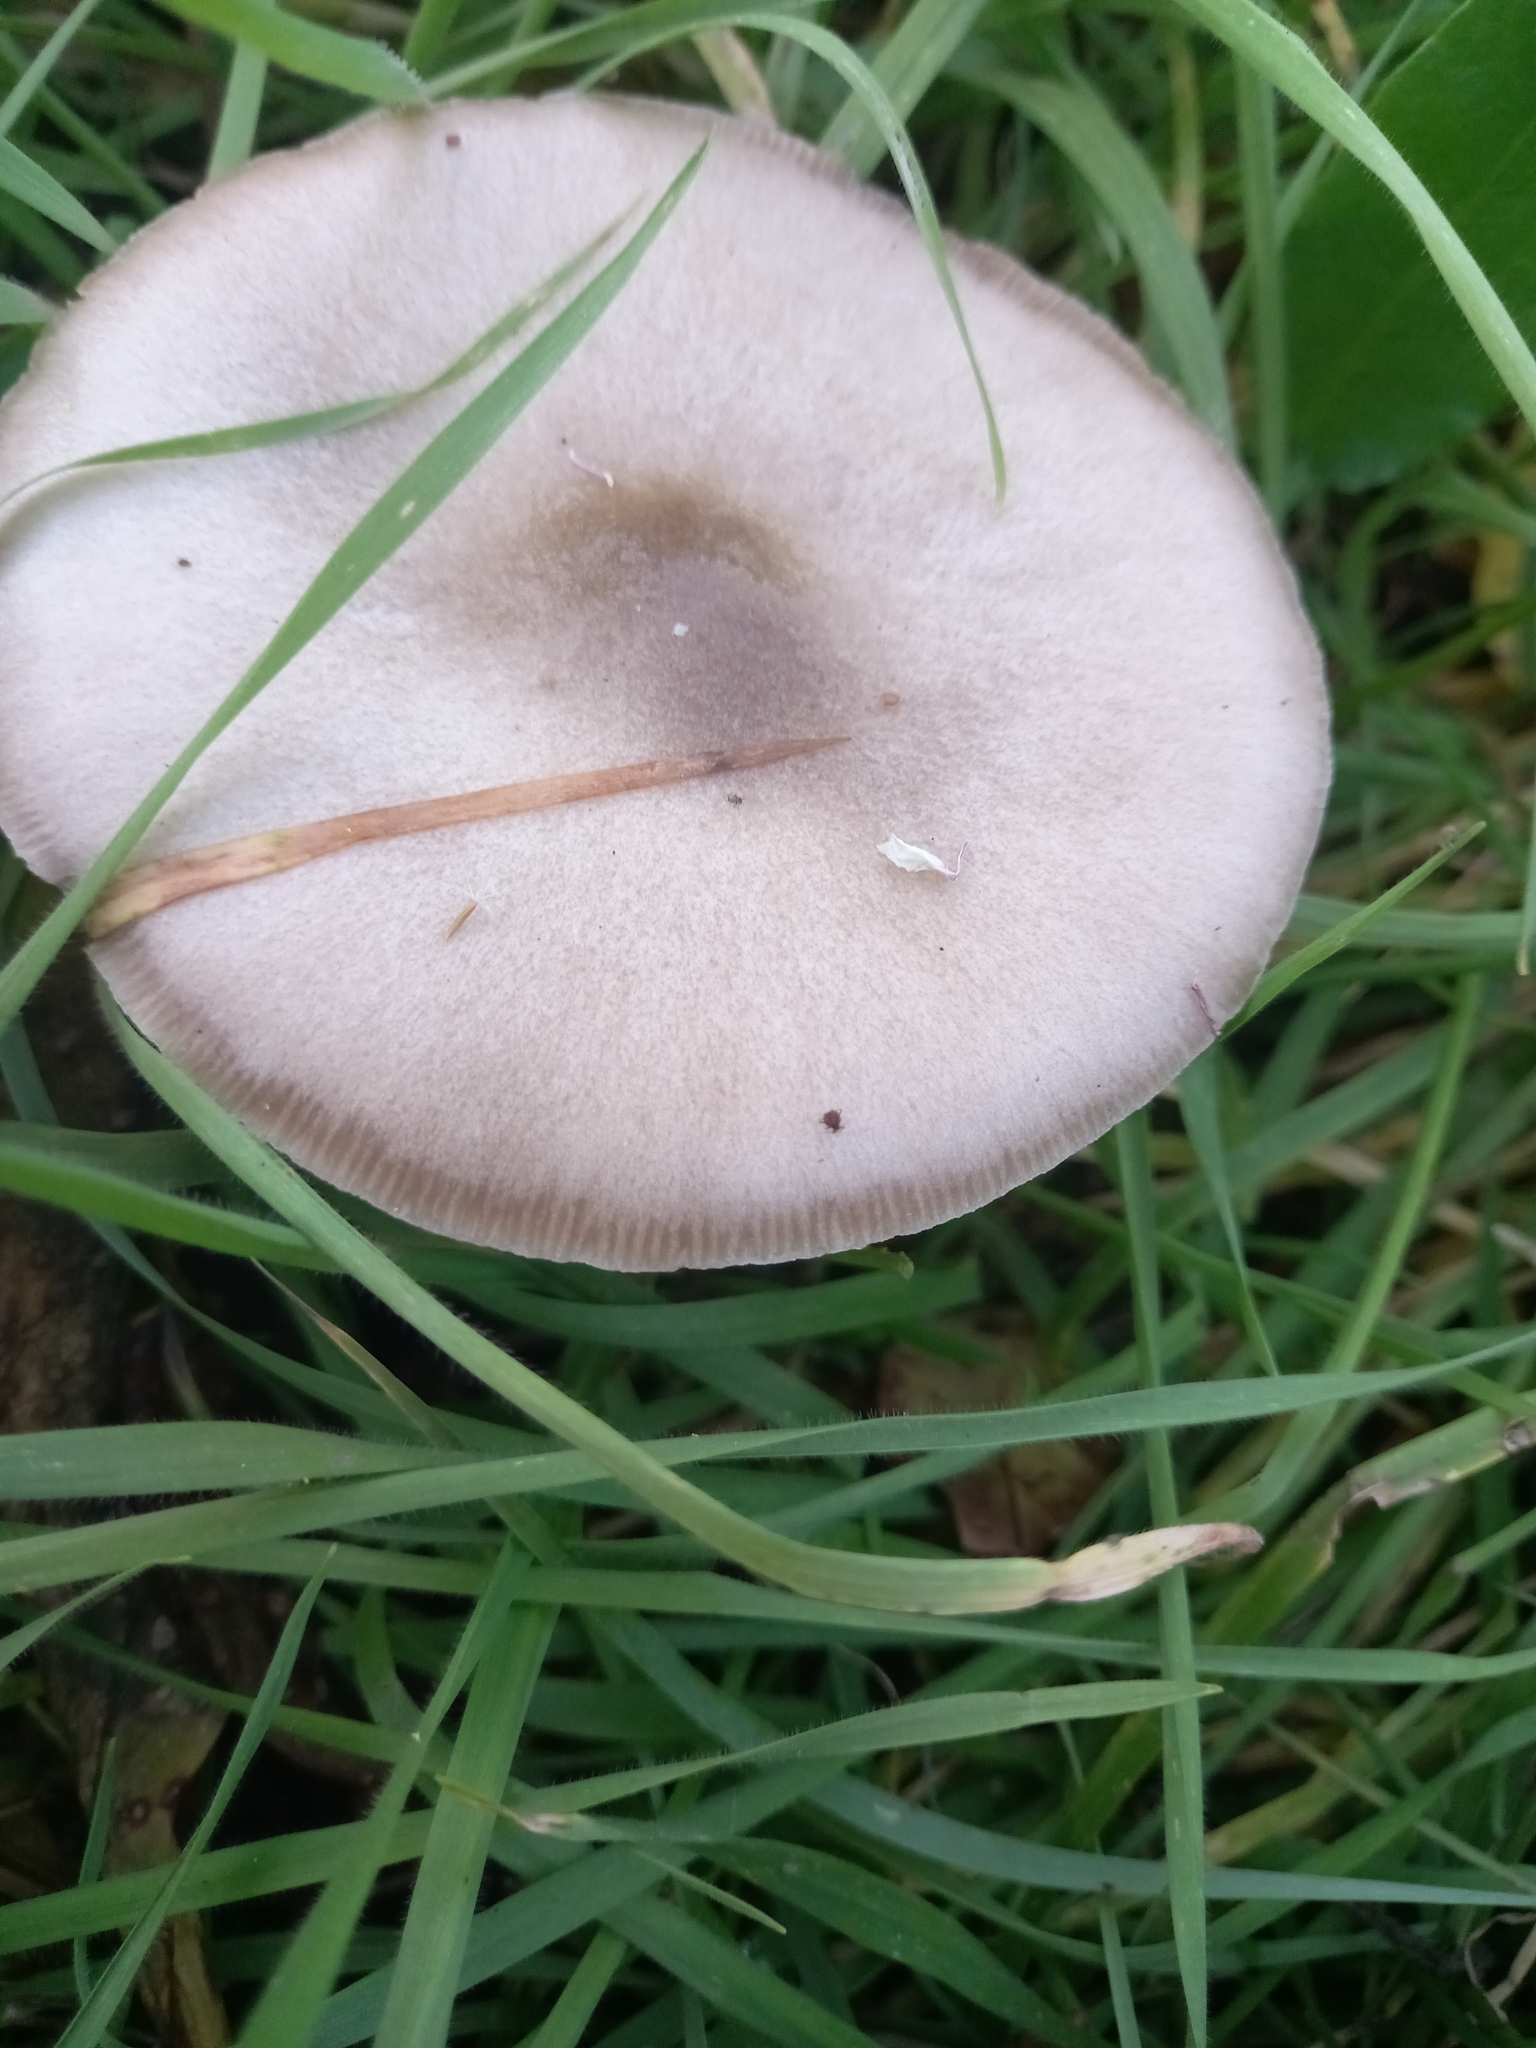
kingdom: Fungi
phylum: Basidiomycota
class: Agaricomycetes
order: Agaricales
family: Pluteaceae
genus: Volvopluteus
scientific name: Volvopluteus gloiocephalus
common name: Stubble rosegill
